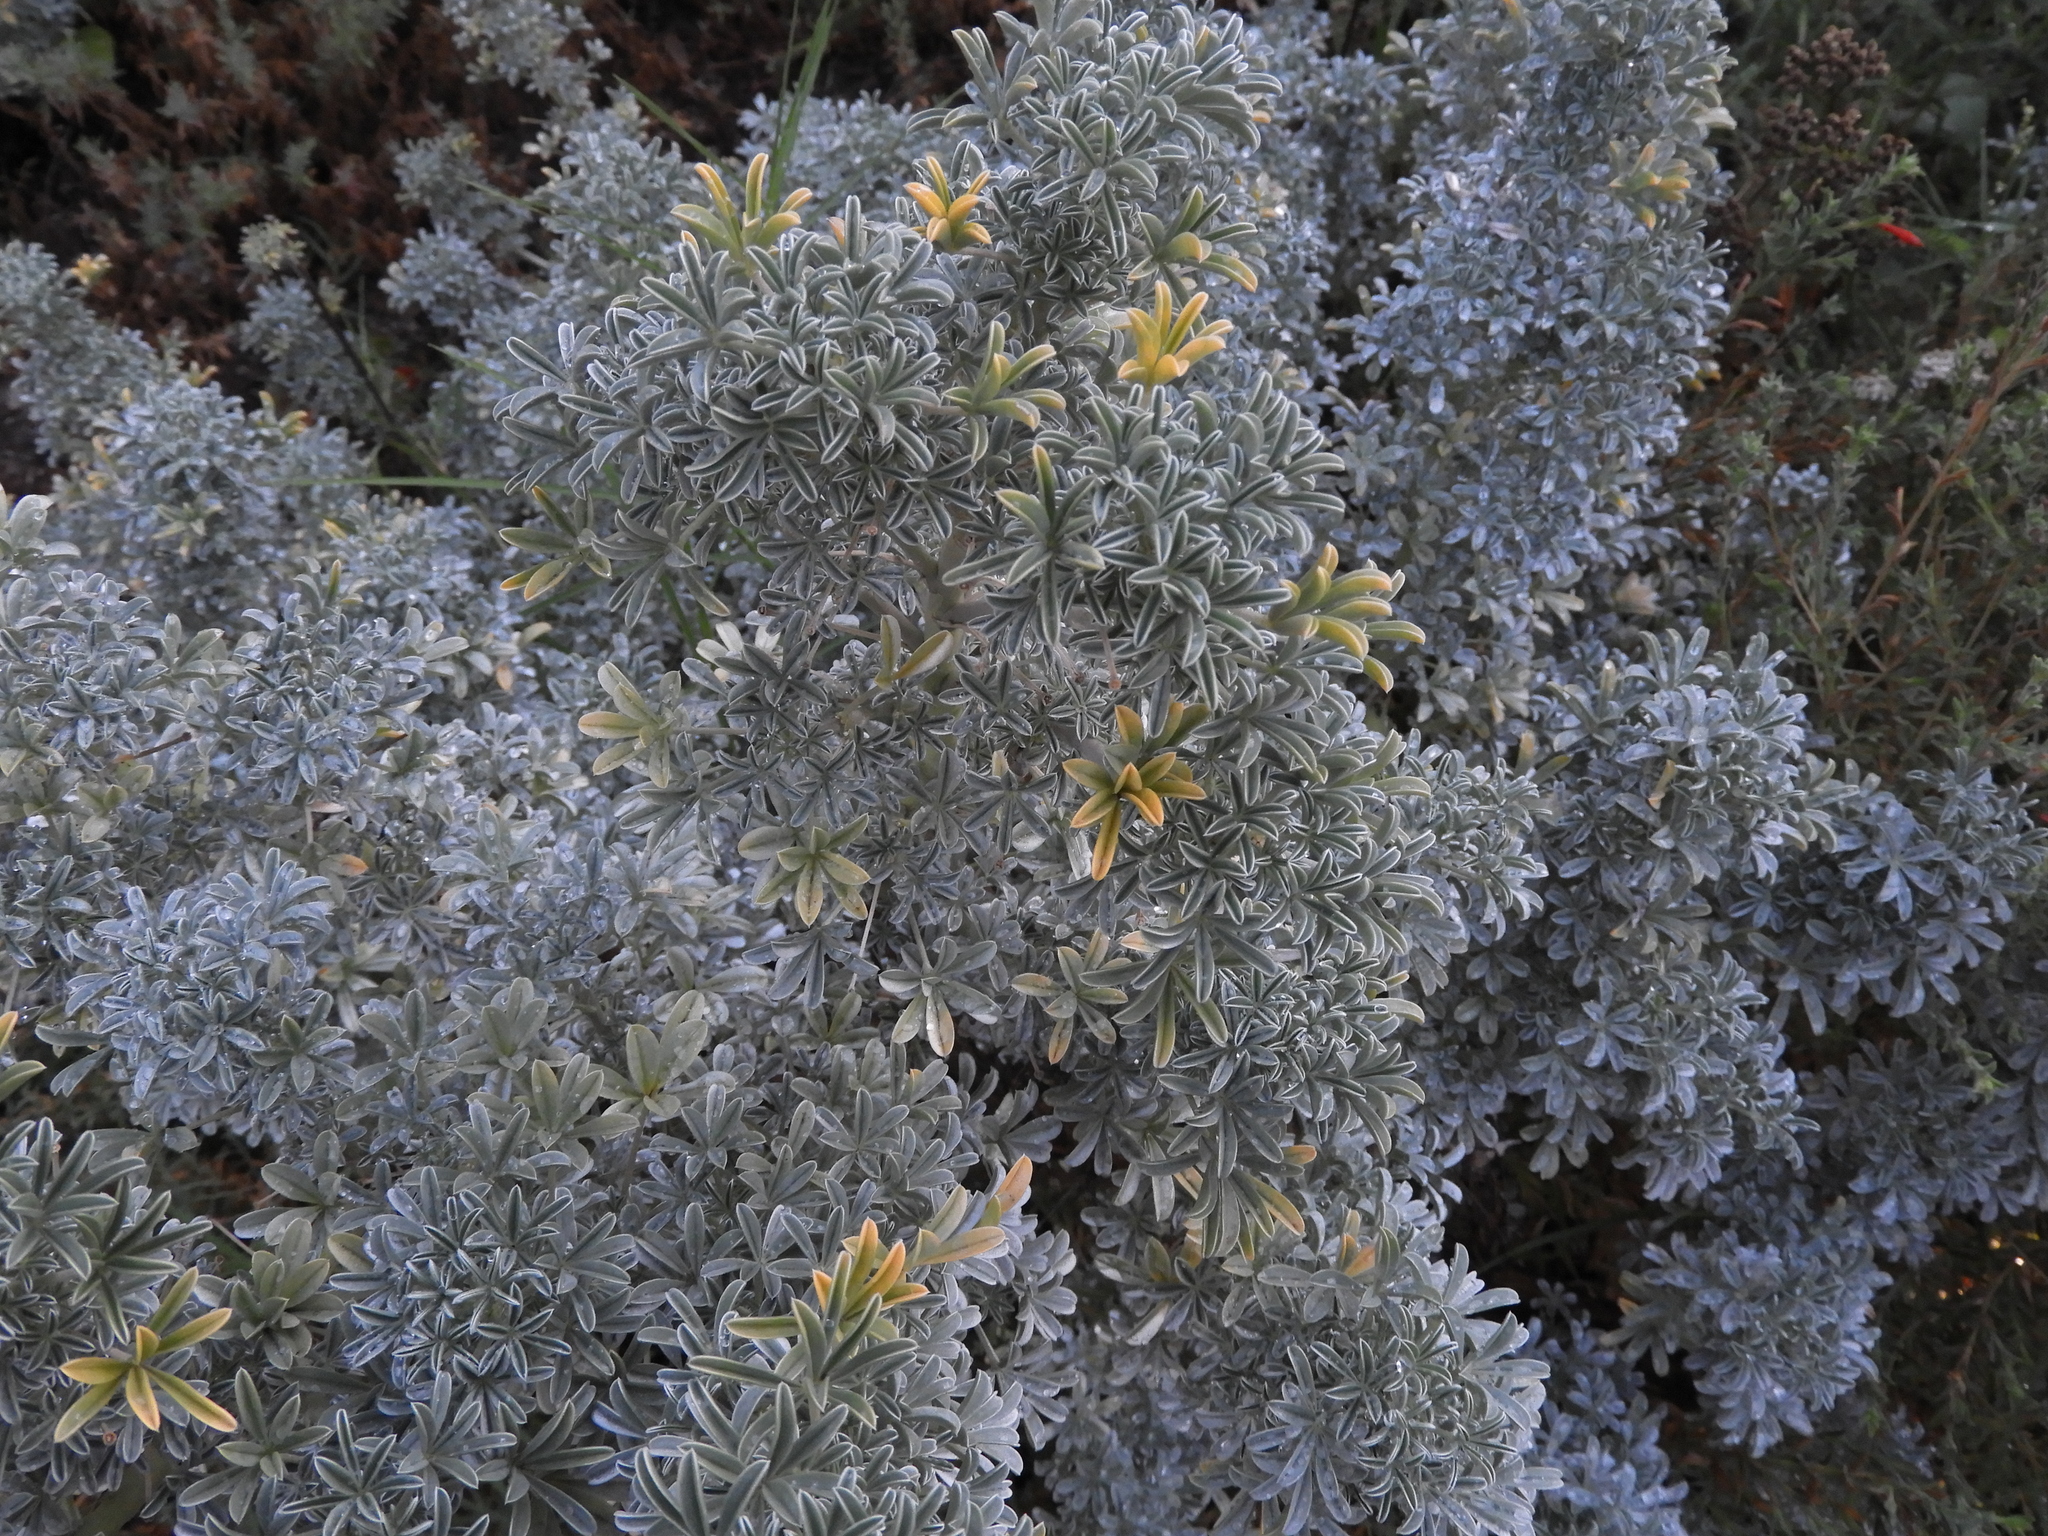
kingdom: Plantae
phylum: Tracheophyta
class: Magnoliopsida
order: Fabales
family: Fabaceae
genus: Lupinus
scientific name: Lupinus albifrons
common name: Foothill lupine
